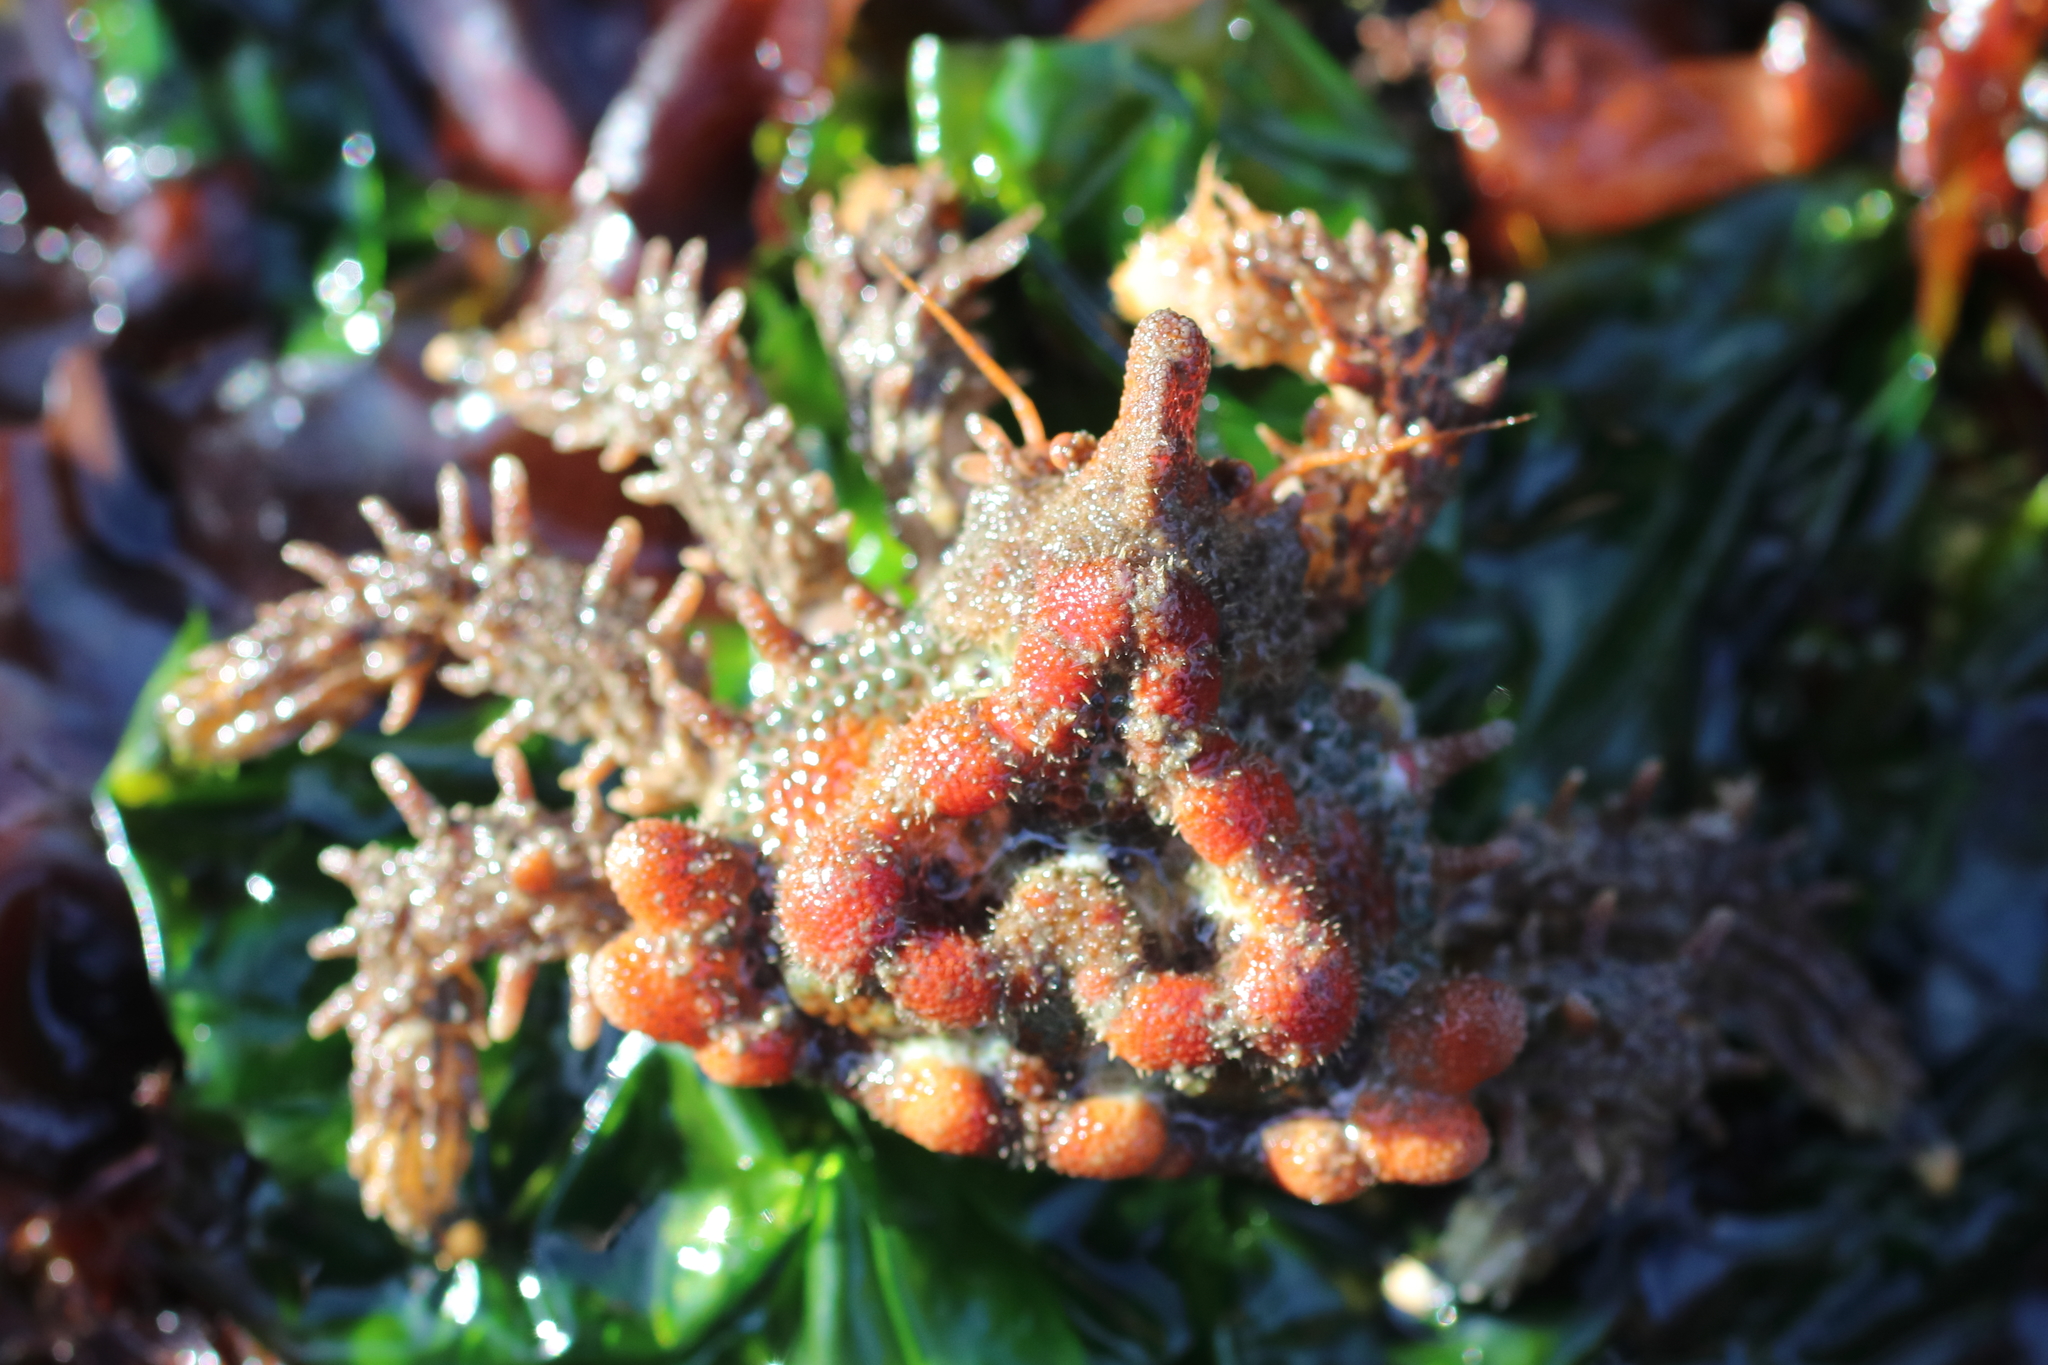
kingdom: Animalia
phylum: Arthropoda
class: Malacostraca
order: Decapoda
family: Lithodidae
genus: Phyllolithodes
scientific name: Phyllolithodes papillosus
